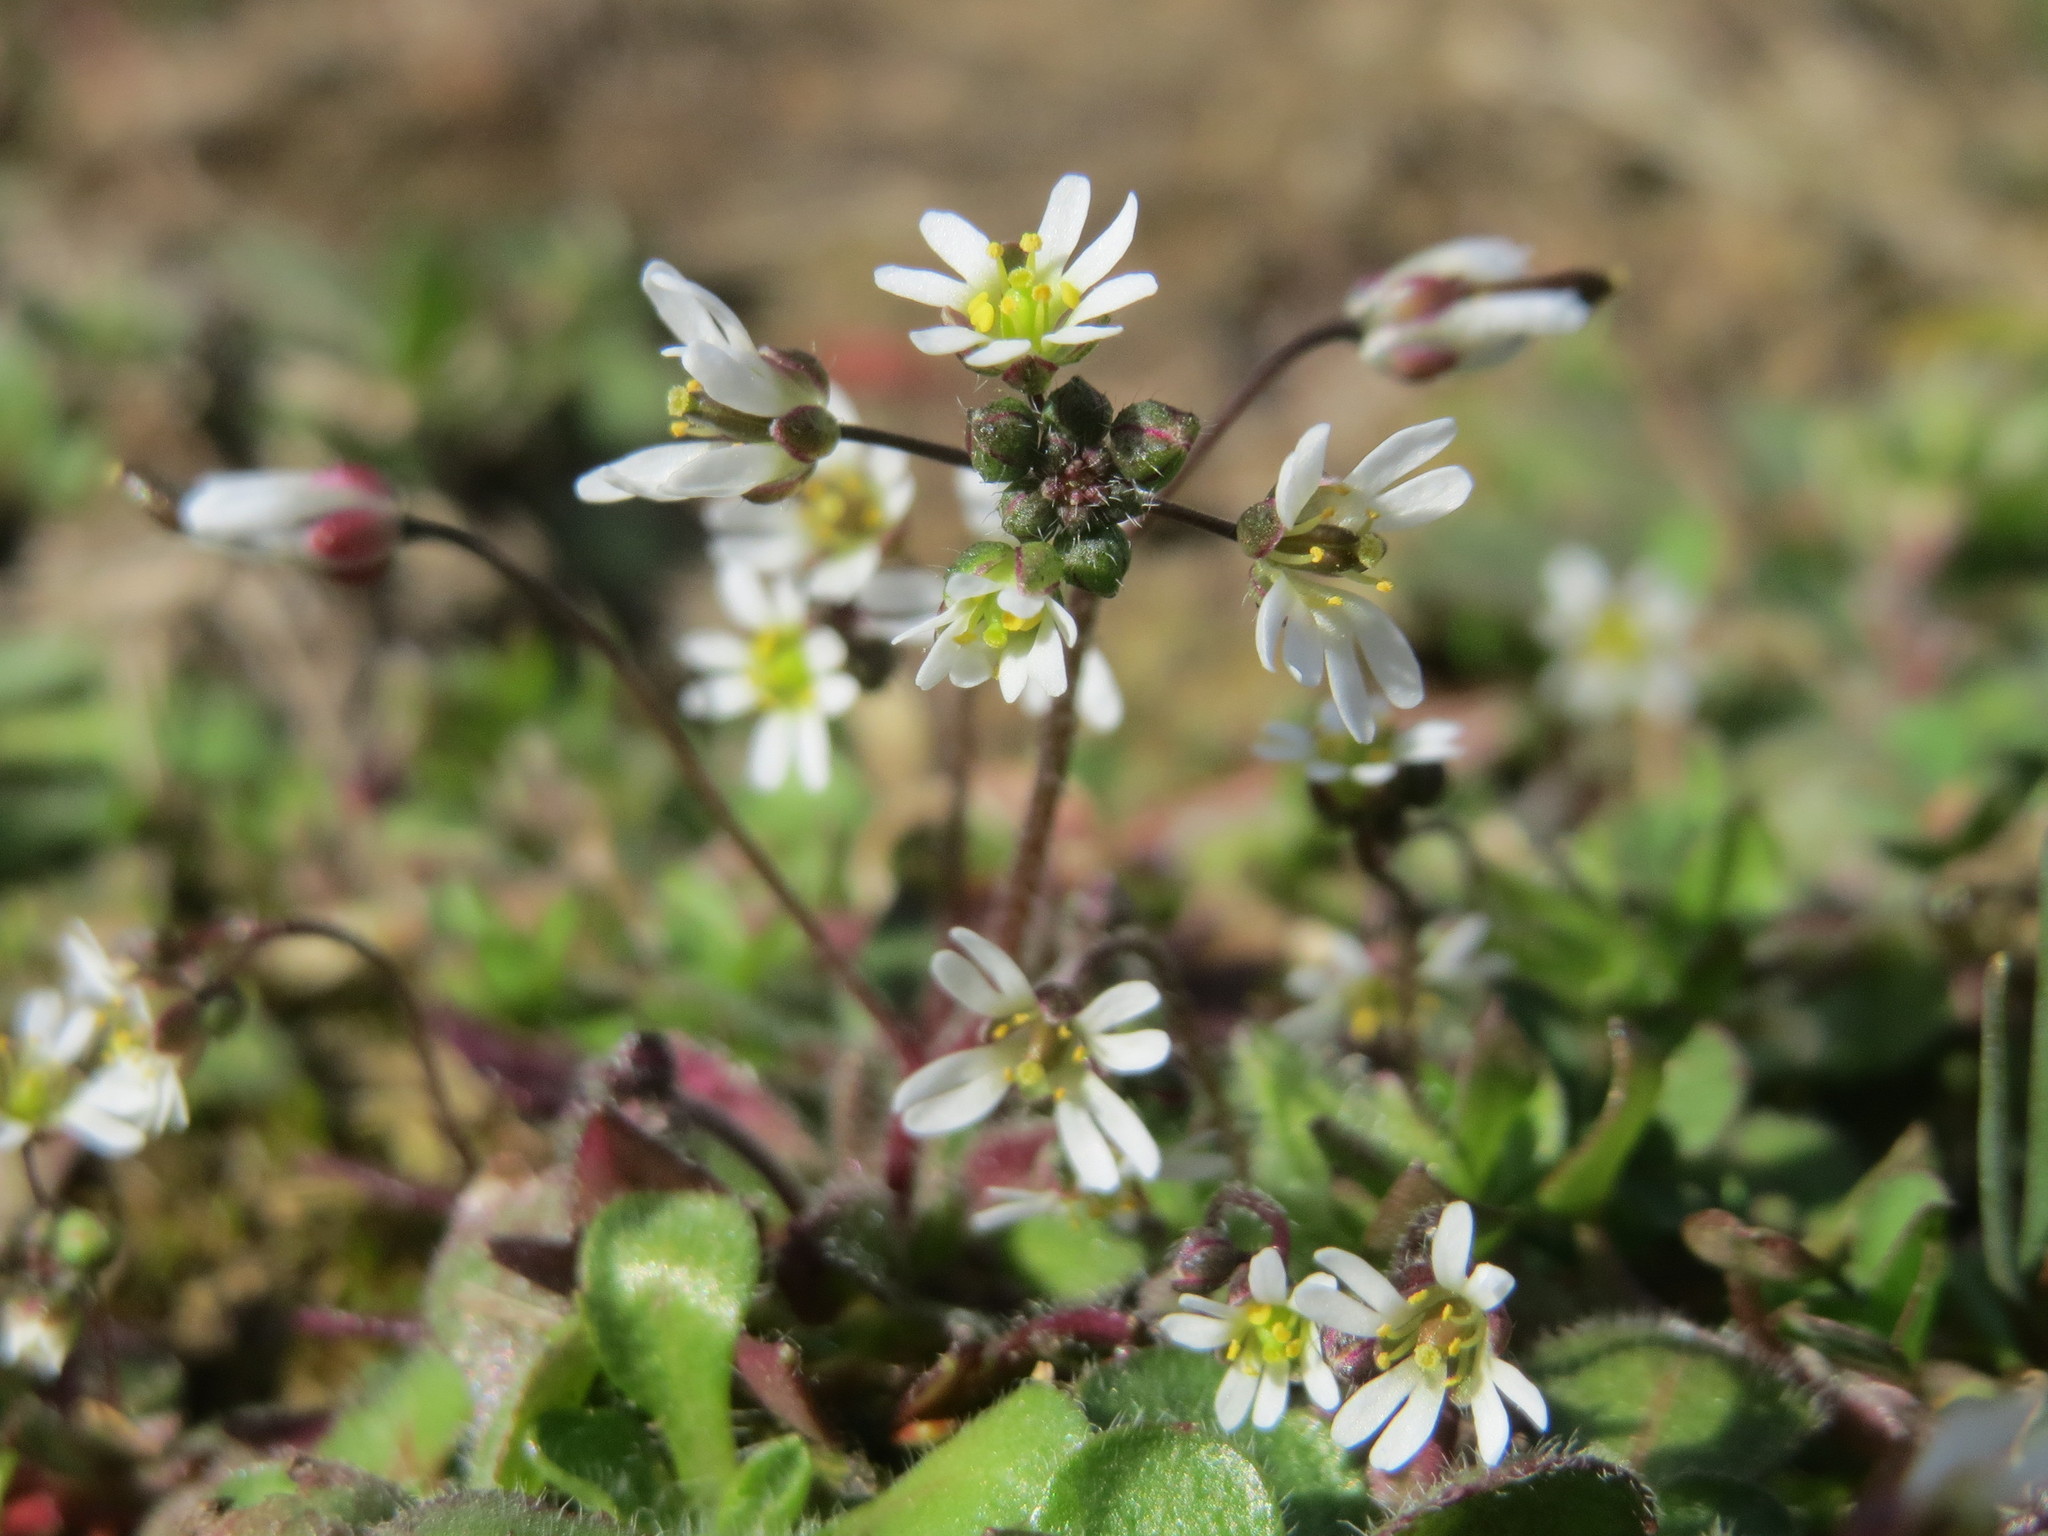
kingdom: Plantae
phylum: Tracheophyta
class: Magnoliopsida
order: Brassicales
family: Brassicaceae
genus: Draba
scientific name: Draba verna
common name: Spring draba
